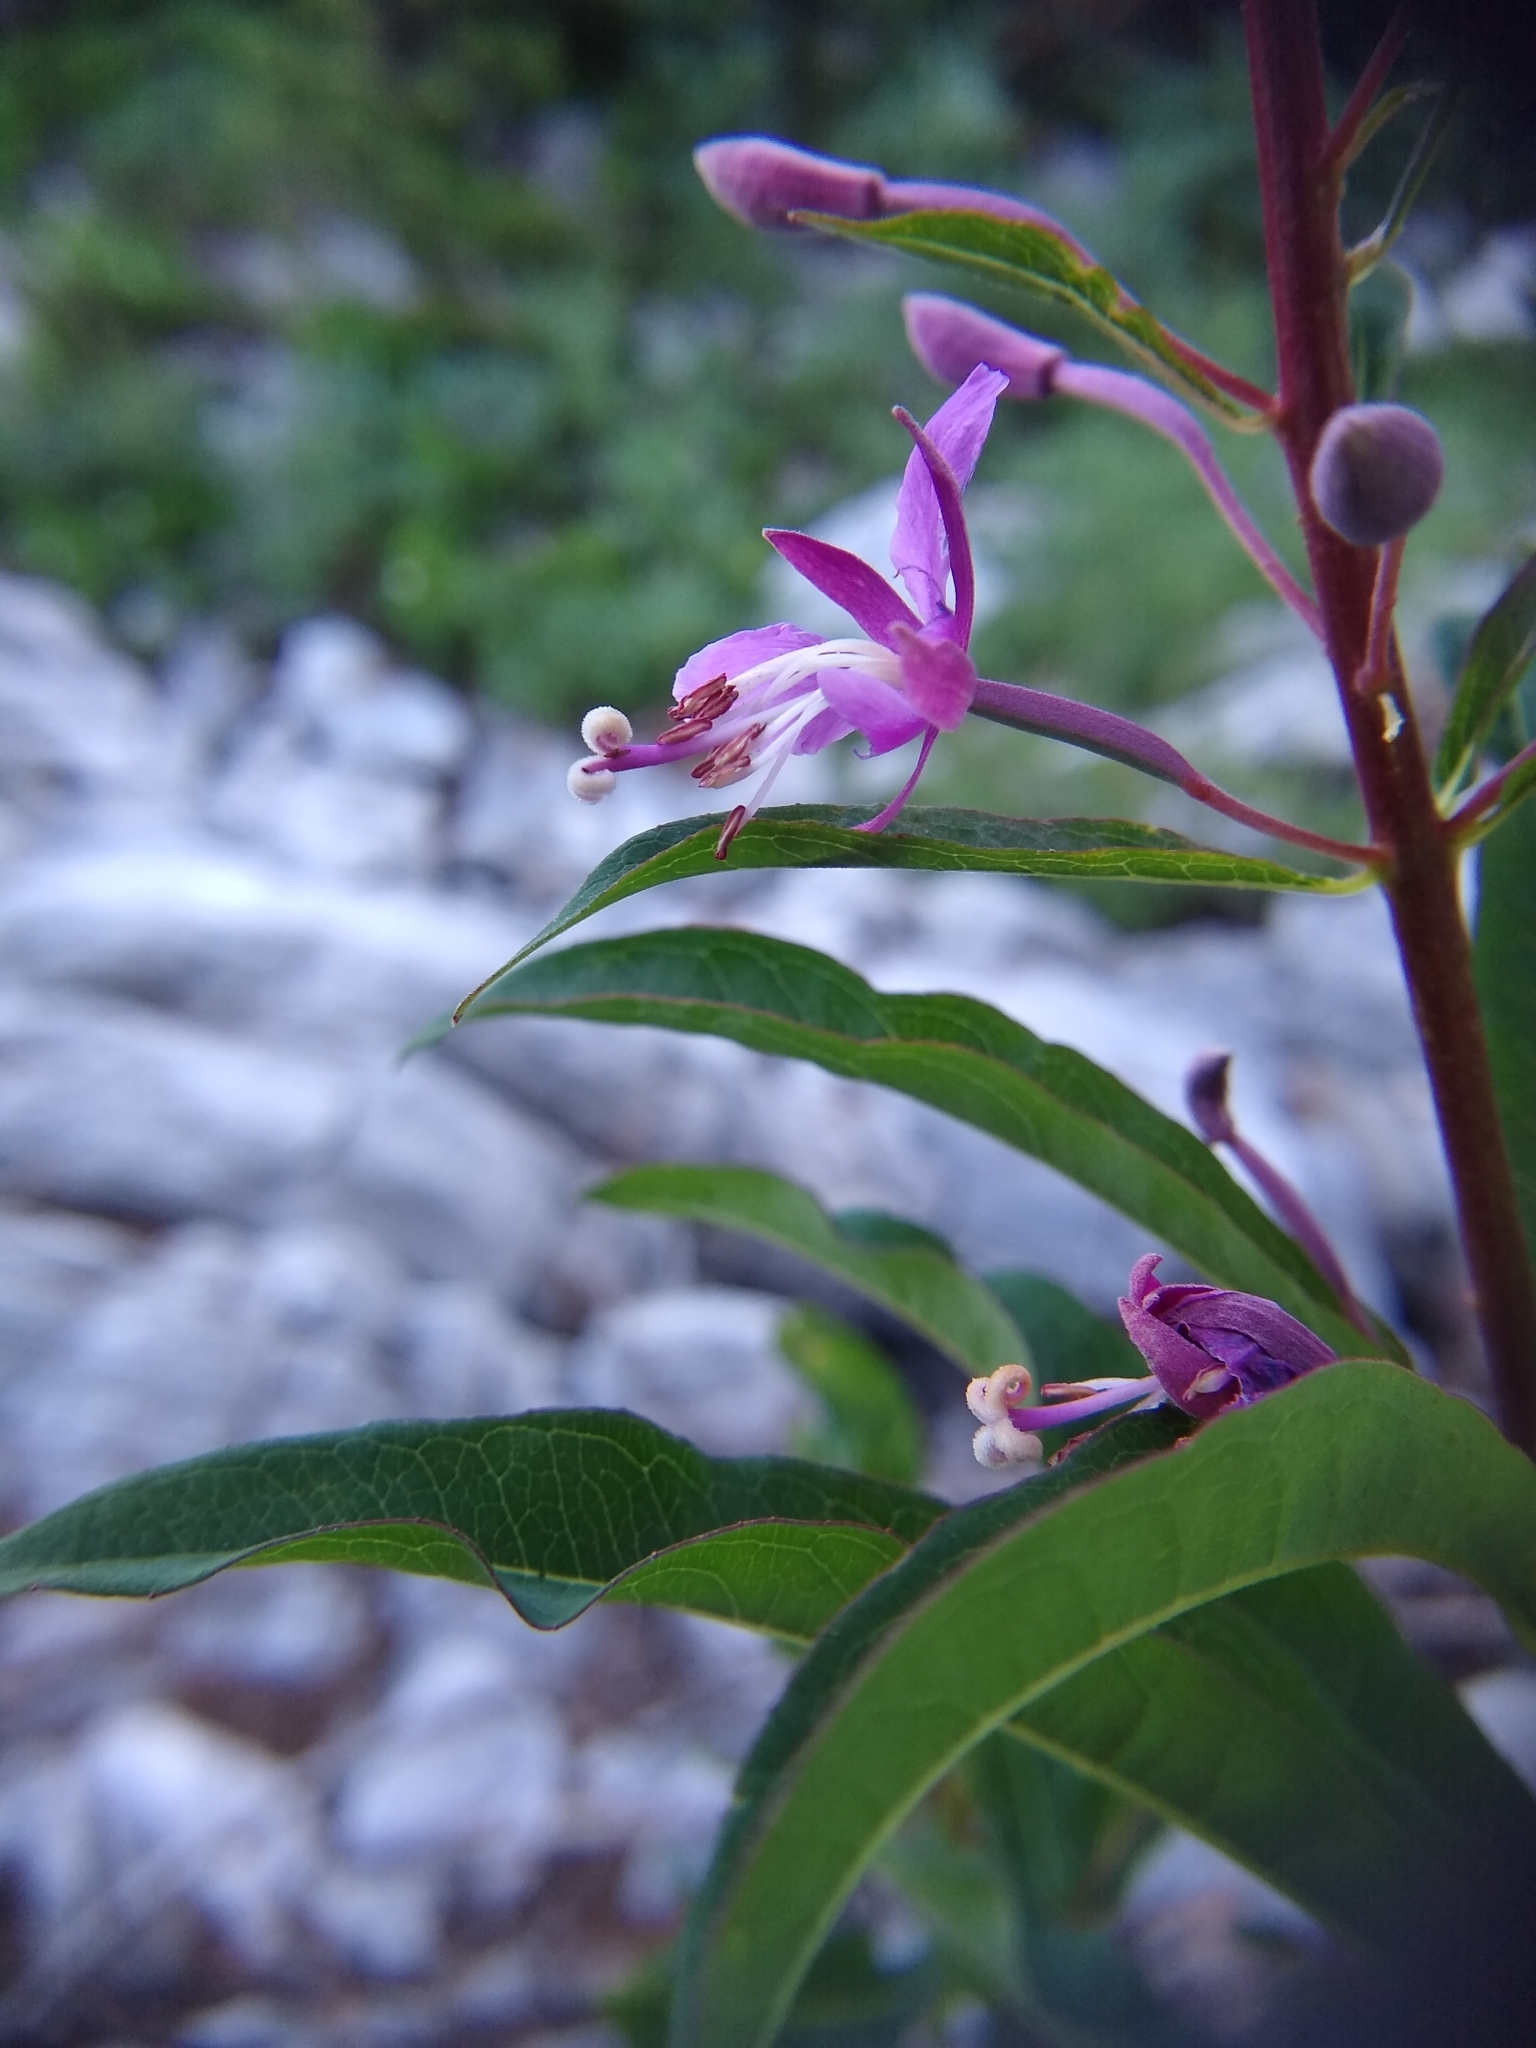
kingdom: Plantae
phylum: Tracheophyta
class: Magnoliopsida
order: Myrtales
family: Onagraceae
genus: Chamaenerion
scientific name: Chamaenerion angustifolium
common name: Fireweed
